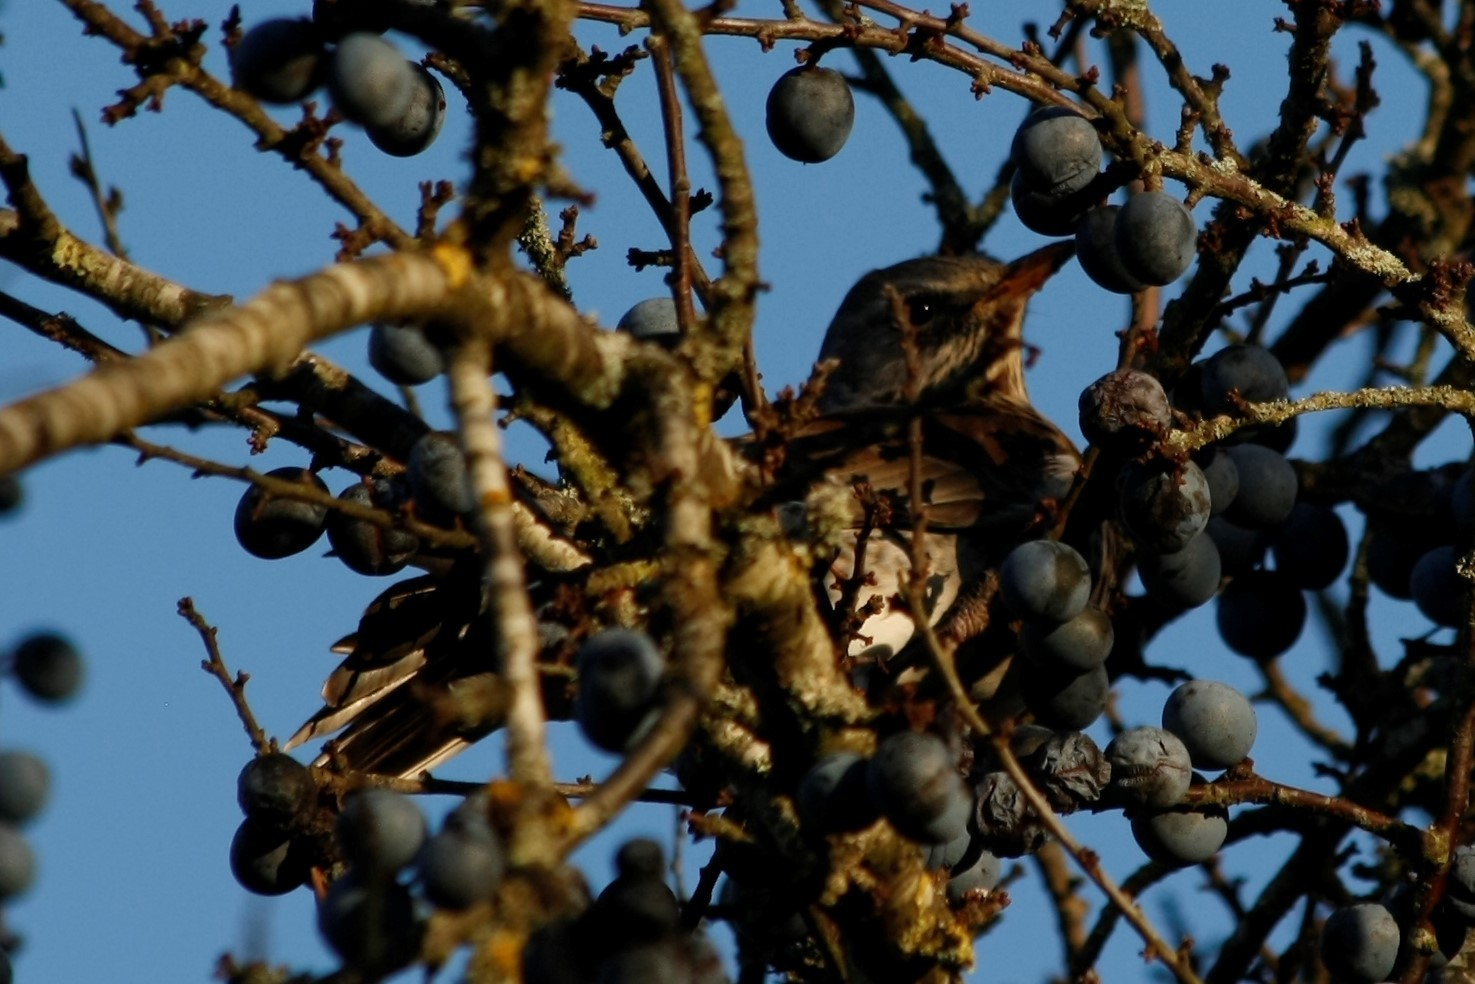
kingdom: Animalia
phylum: Chordata
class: Aves
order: Passeriformes
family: Turdidae
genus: Turdus
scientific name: Turdus pilaris
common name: Fieldfare
